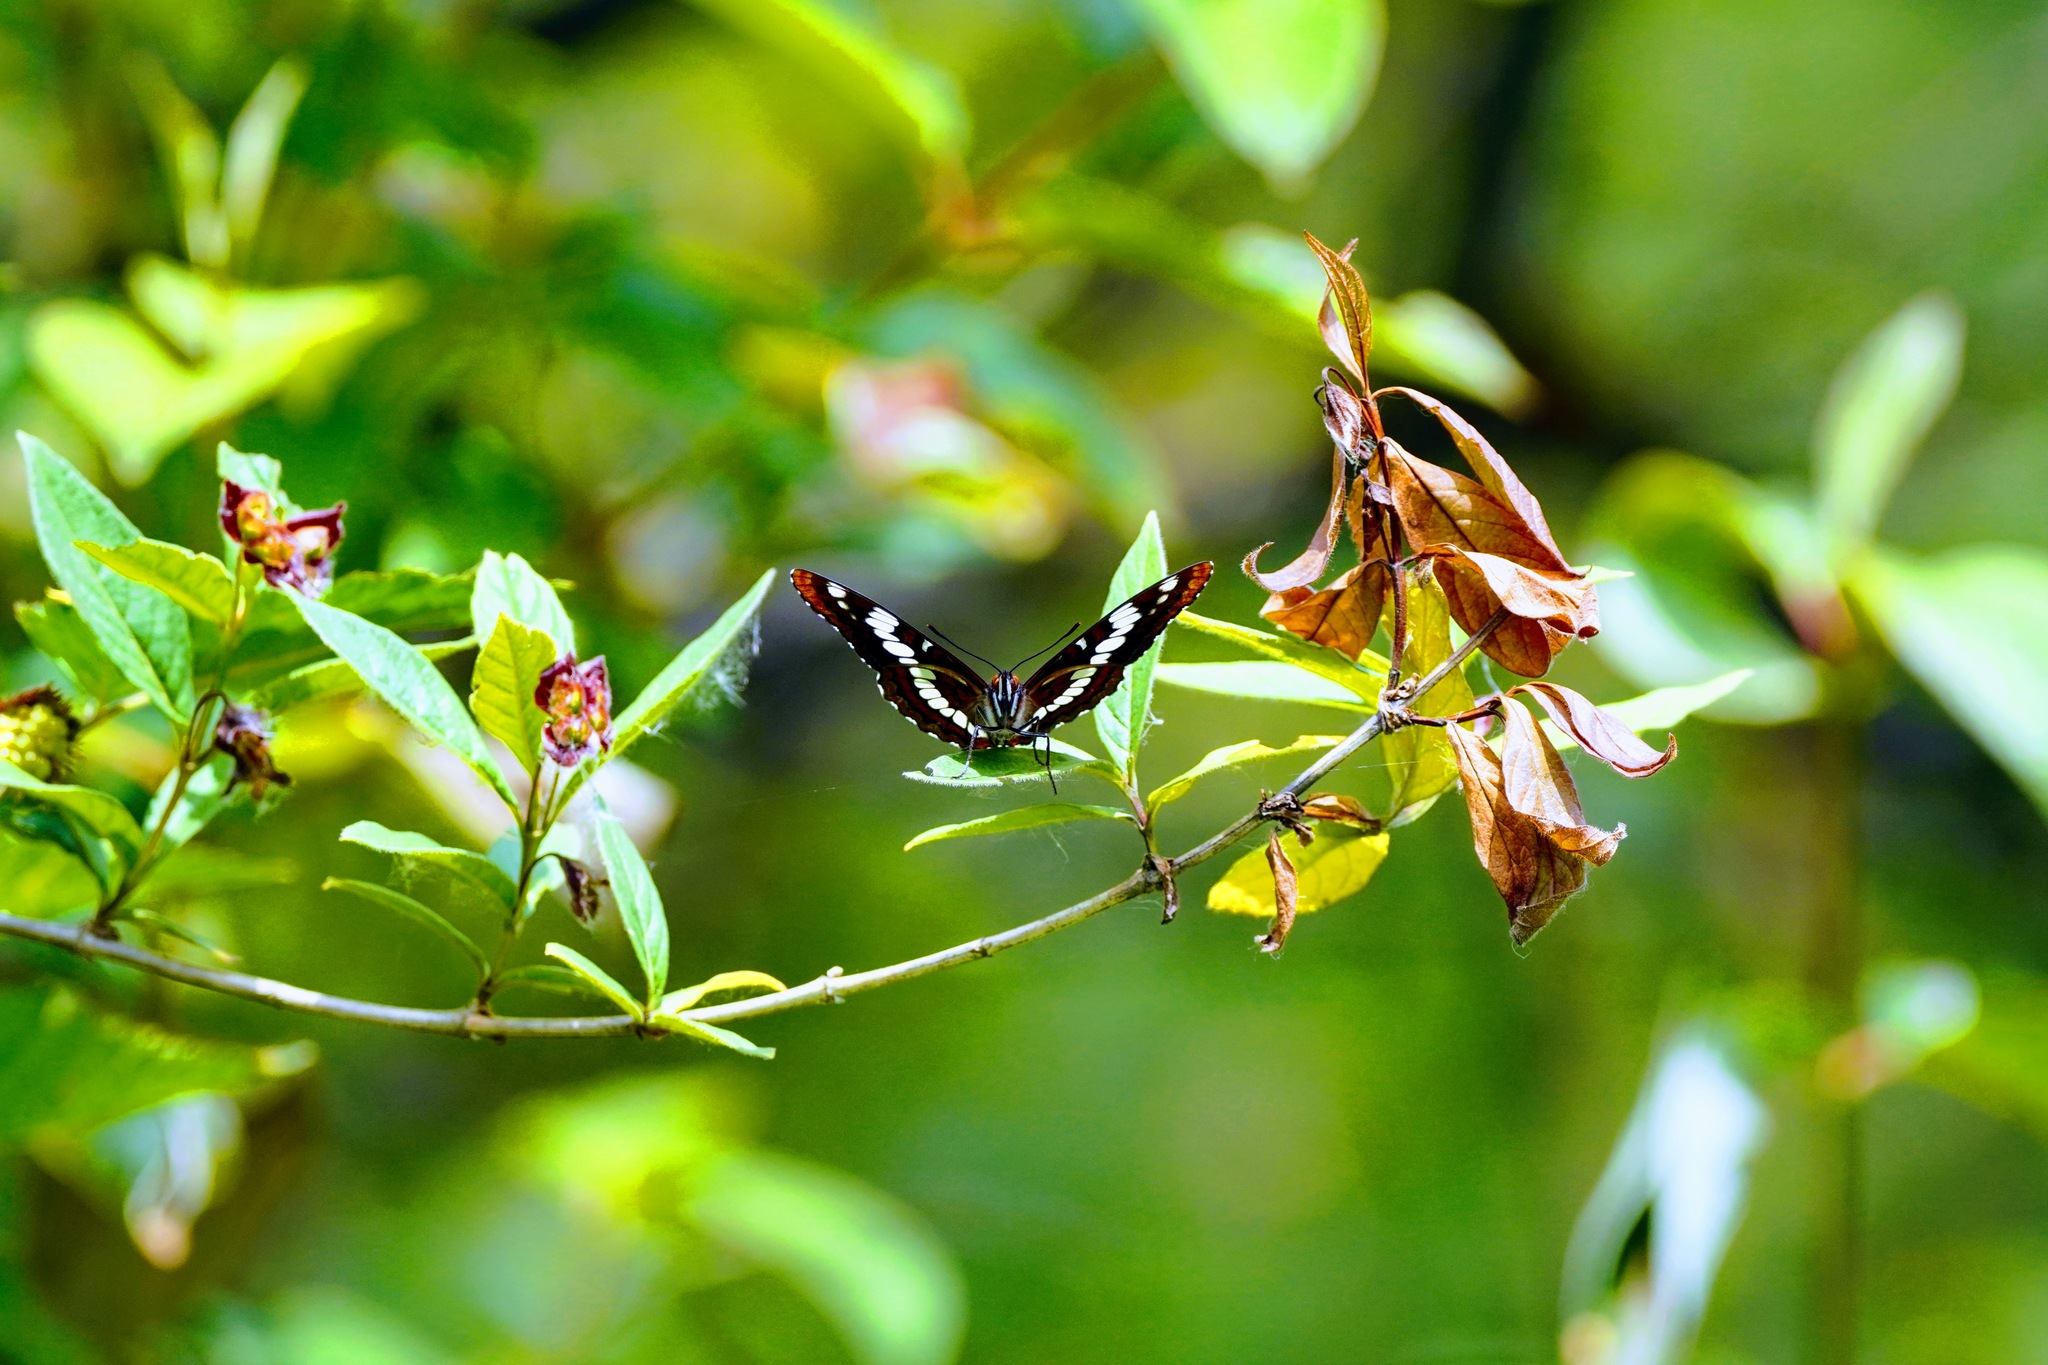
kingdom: Animalia
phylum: Arthropoda
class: Insecta
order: Lepidoptera
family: Nymphalidae
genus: Limenitis
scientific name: Limenitis lorquini
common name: Lorquin's admiral
